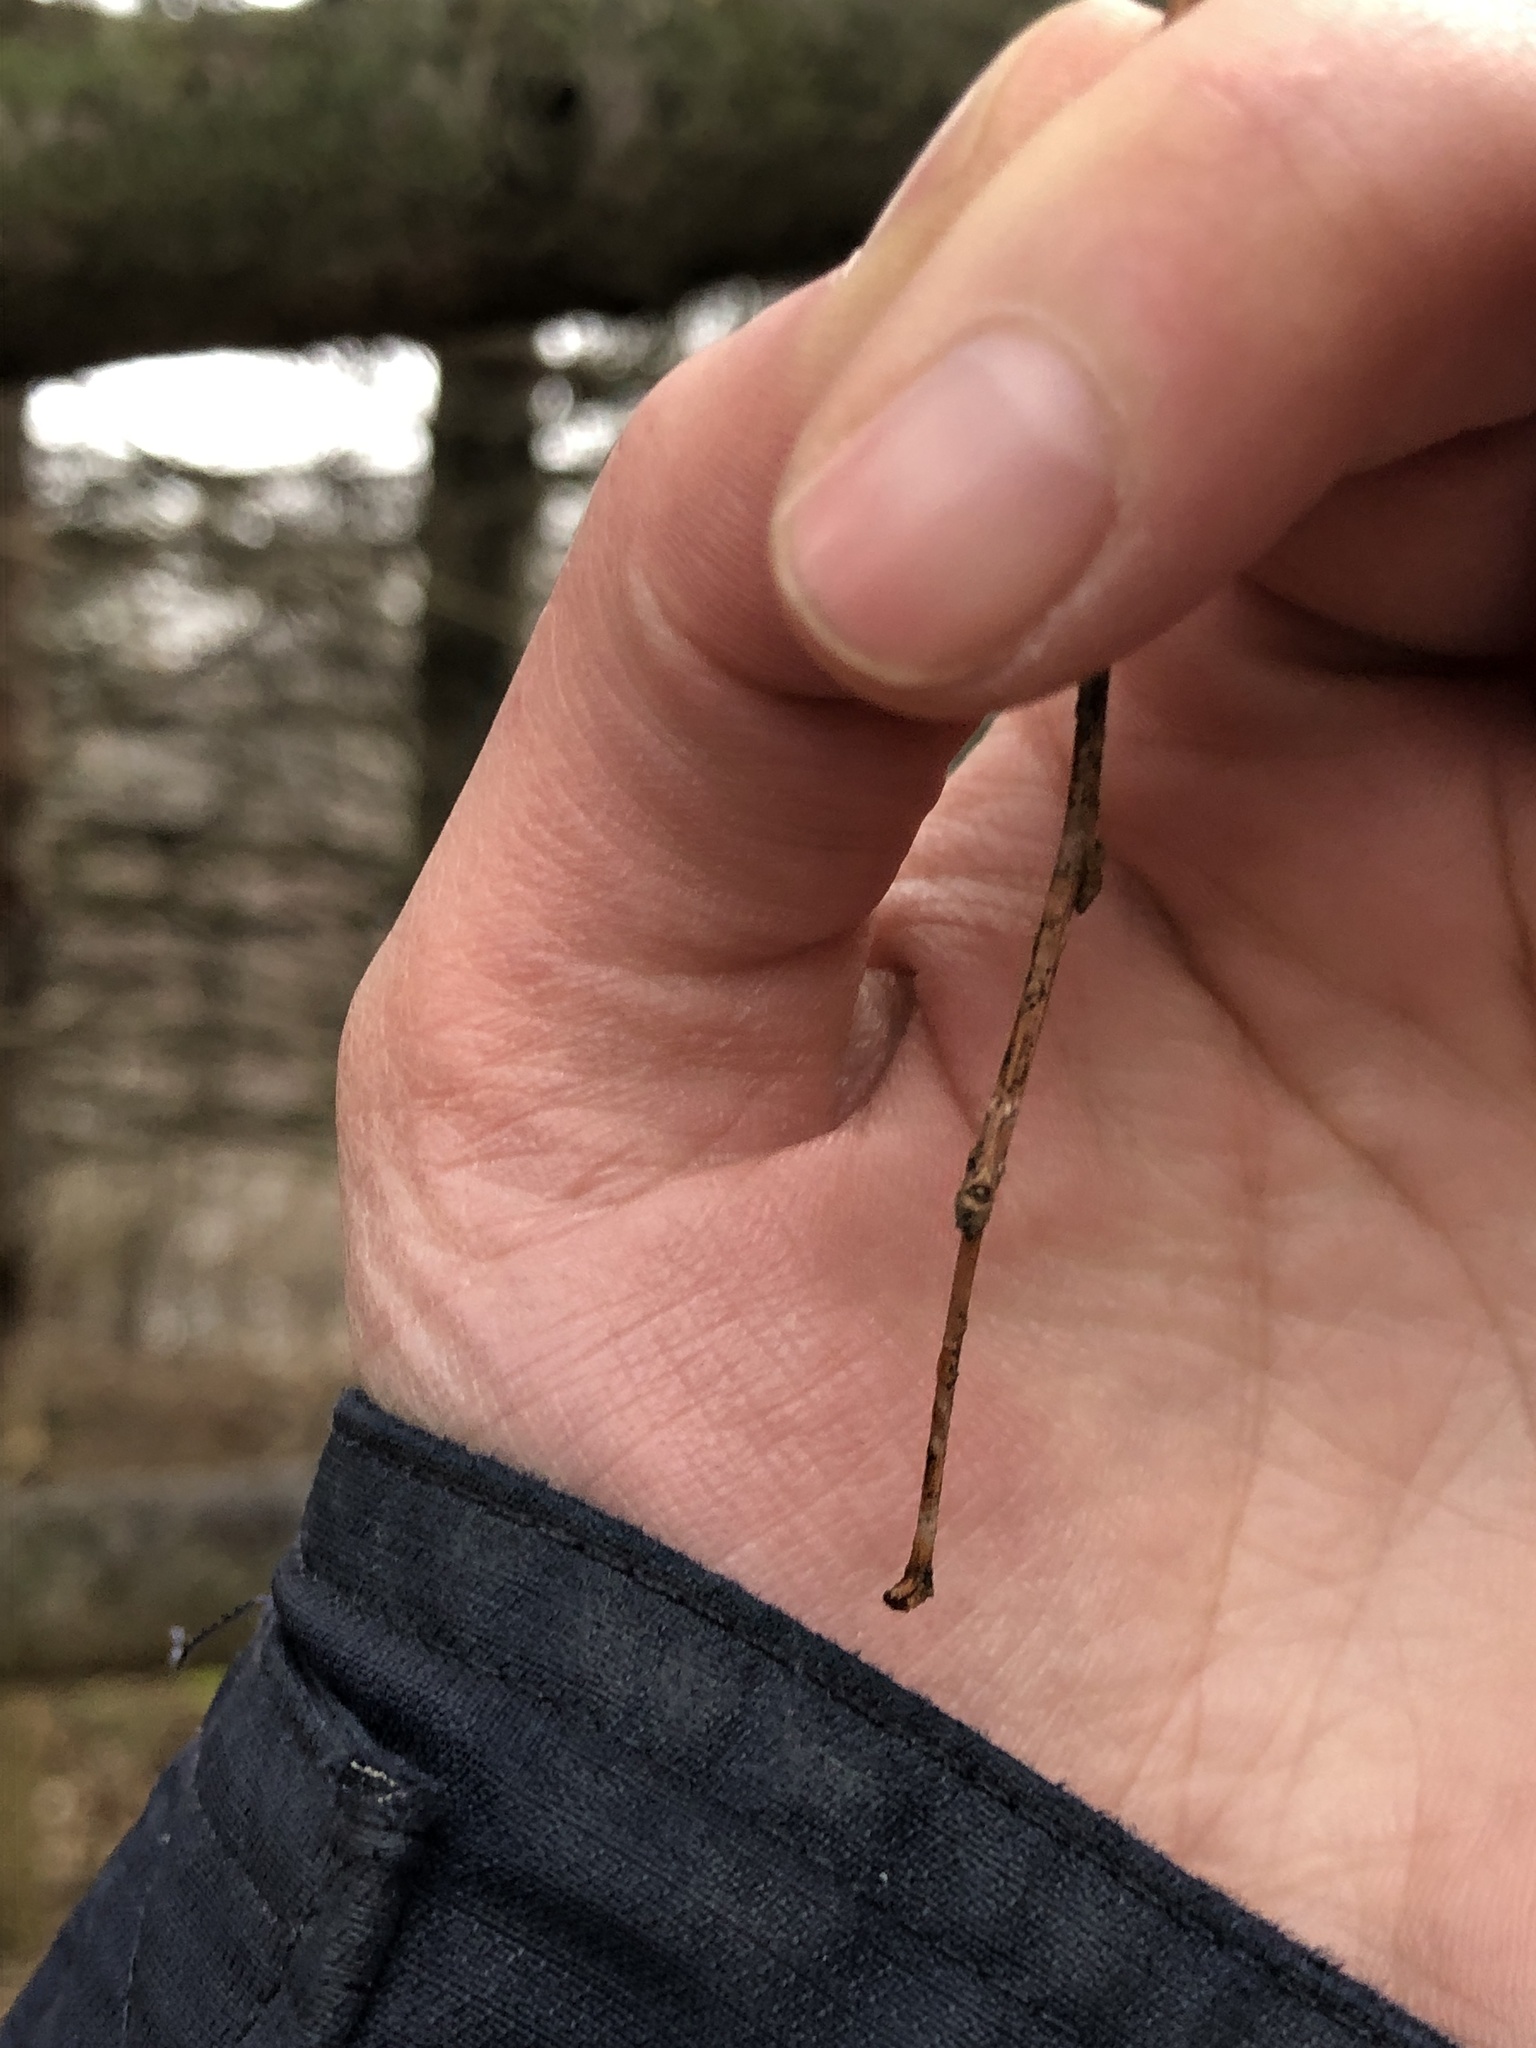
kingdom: Plantae
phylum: Tracheophyta
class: Magnoliopsida
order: Rosales
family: Cannabaceae
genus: Celtis
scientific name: Celtis occidentalis
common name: Common hackberry
